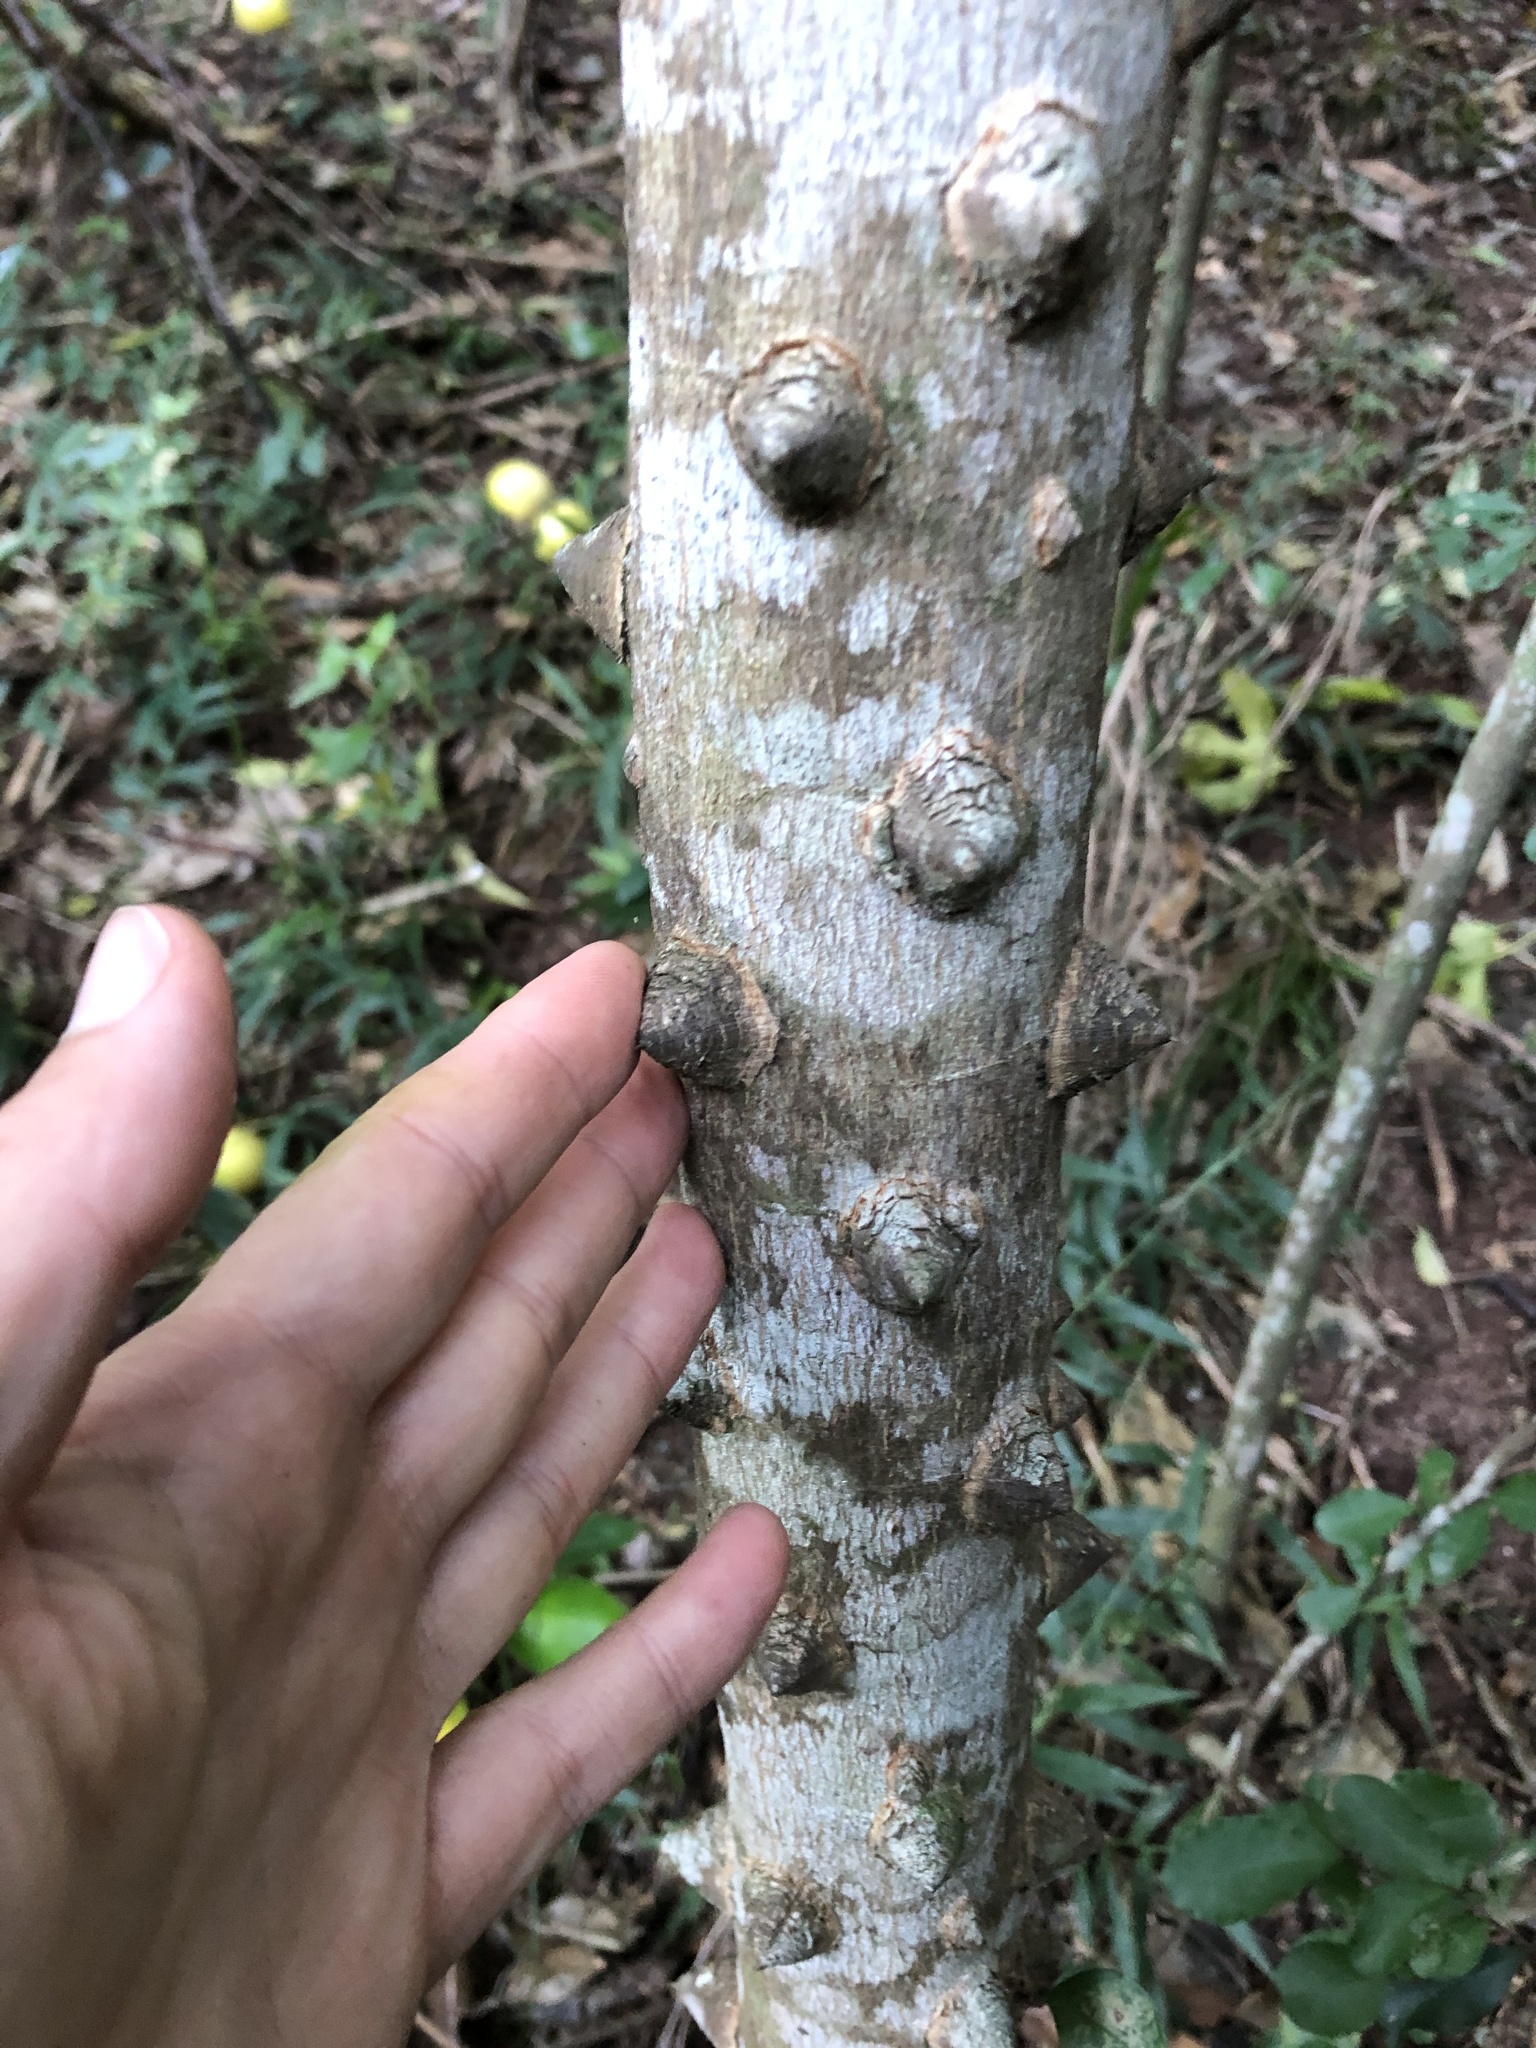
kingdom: Plantae
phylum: Tracheophyta
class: Magnoliopsida
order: Sapindales
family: Rutaceae
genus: Zanthoxylum
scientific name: Zanthoxylum capense
